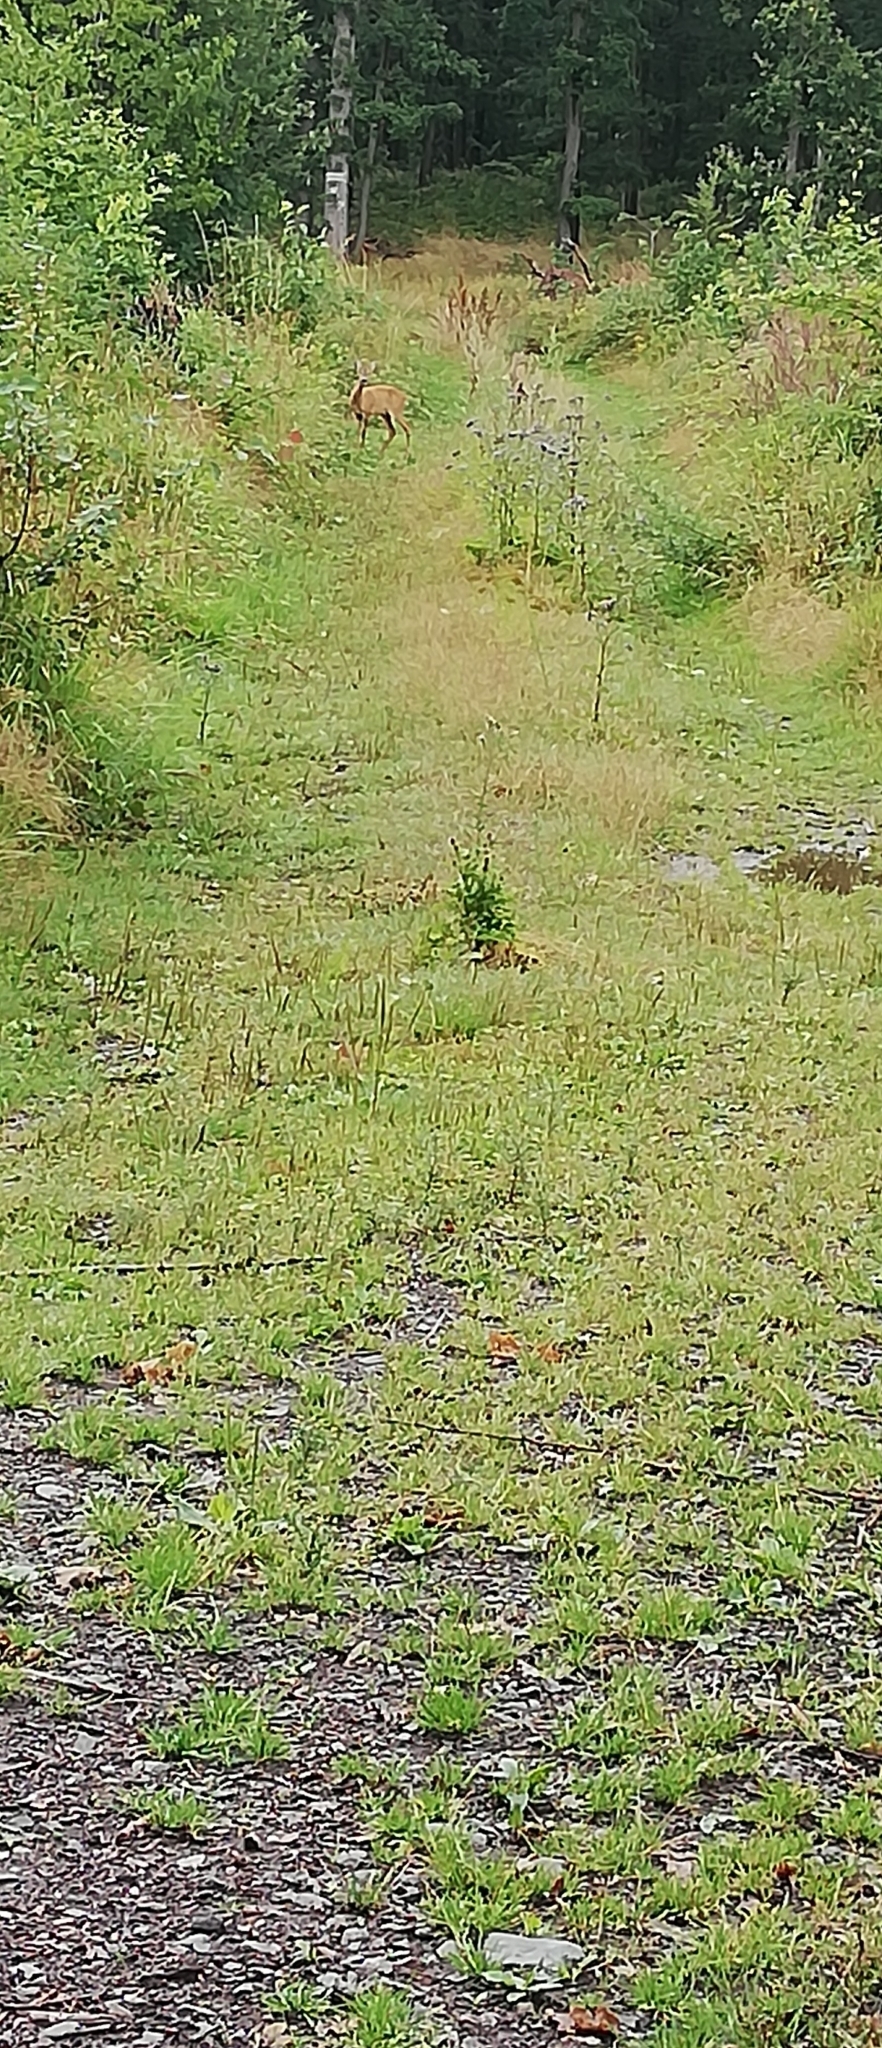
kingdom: Animalia
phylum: Chordata
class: Mammalia
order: Artiodactyla
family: Cervidae
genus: Capreolus
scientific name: Capreolus capreolus
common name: Western roe deer
